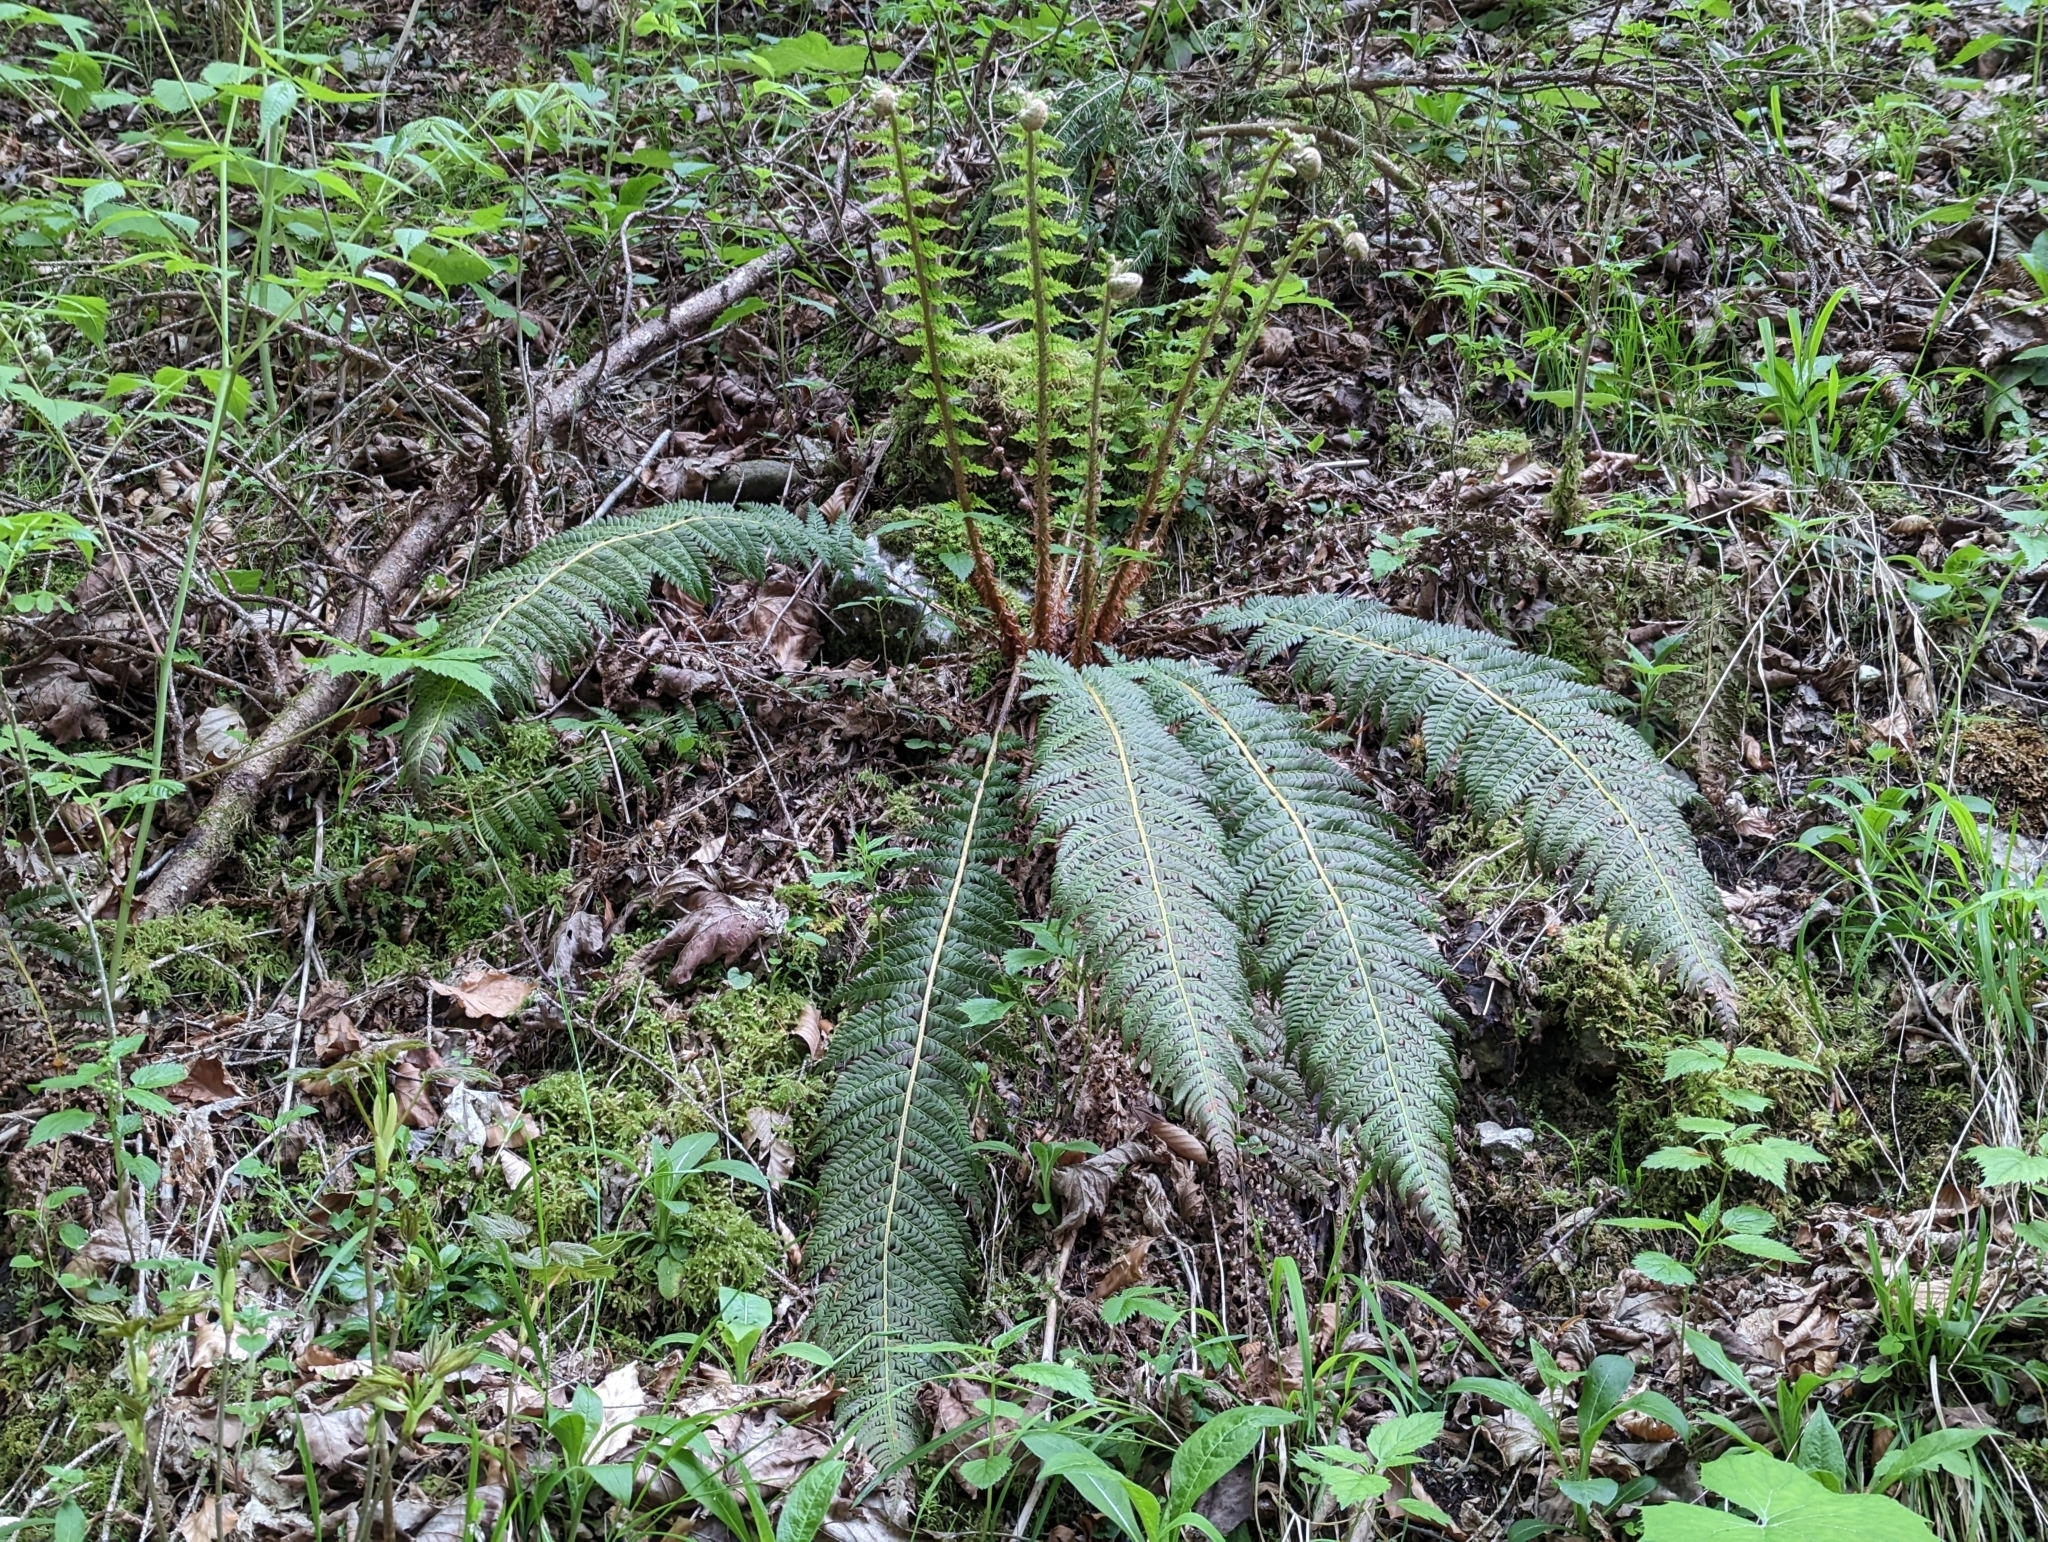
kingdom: Plantae
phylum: Tracheophyta
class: Polypodiopsida
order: Polypodiales
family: Dryopteridaceae
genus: Polystichum
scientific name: Polystichum aculeatum
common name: Hard shield-fern
